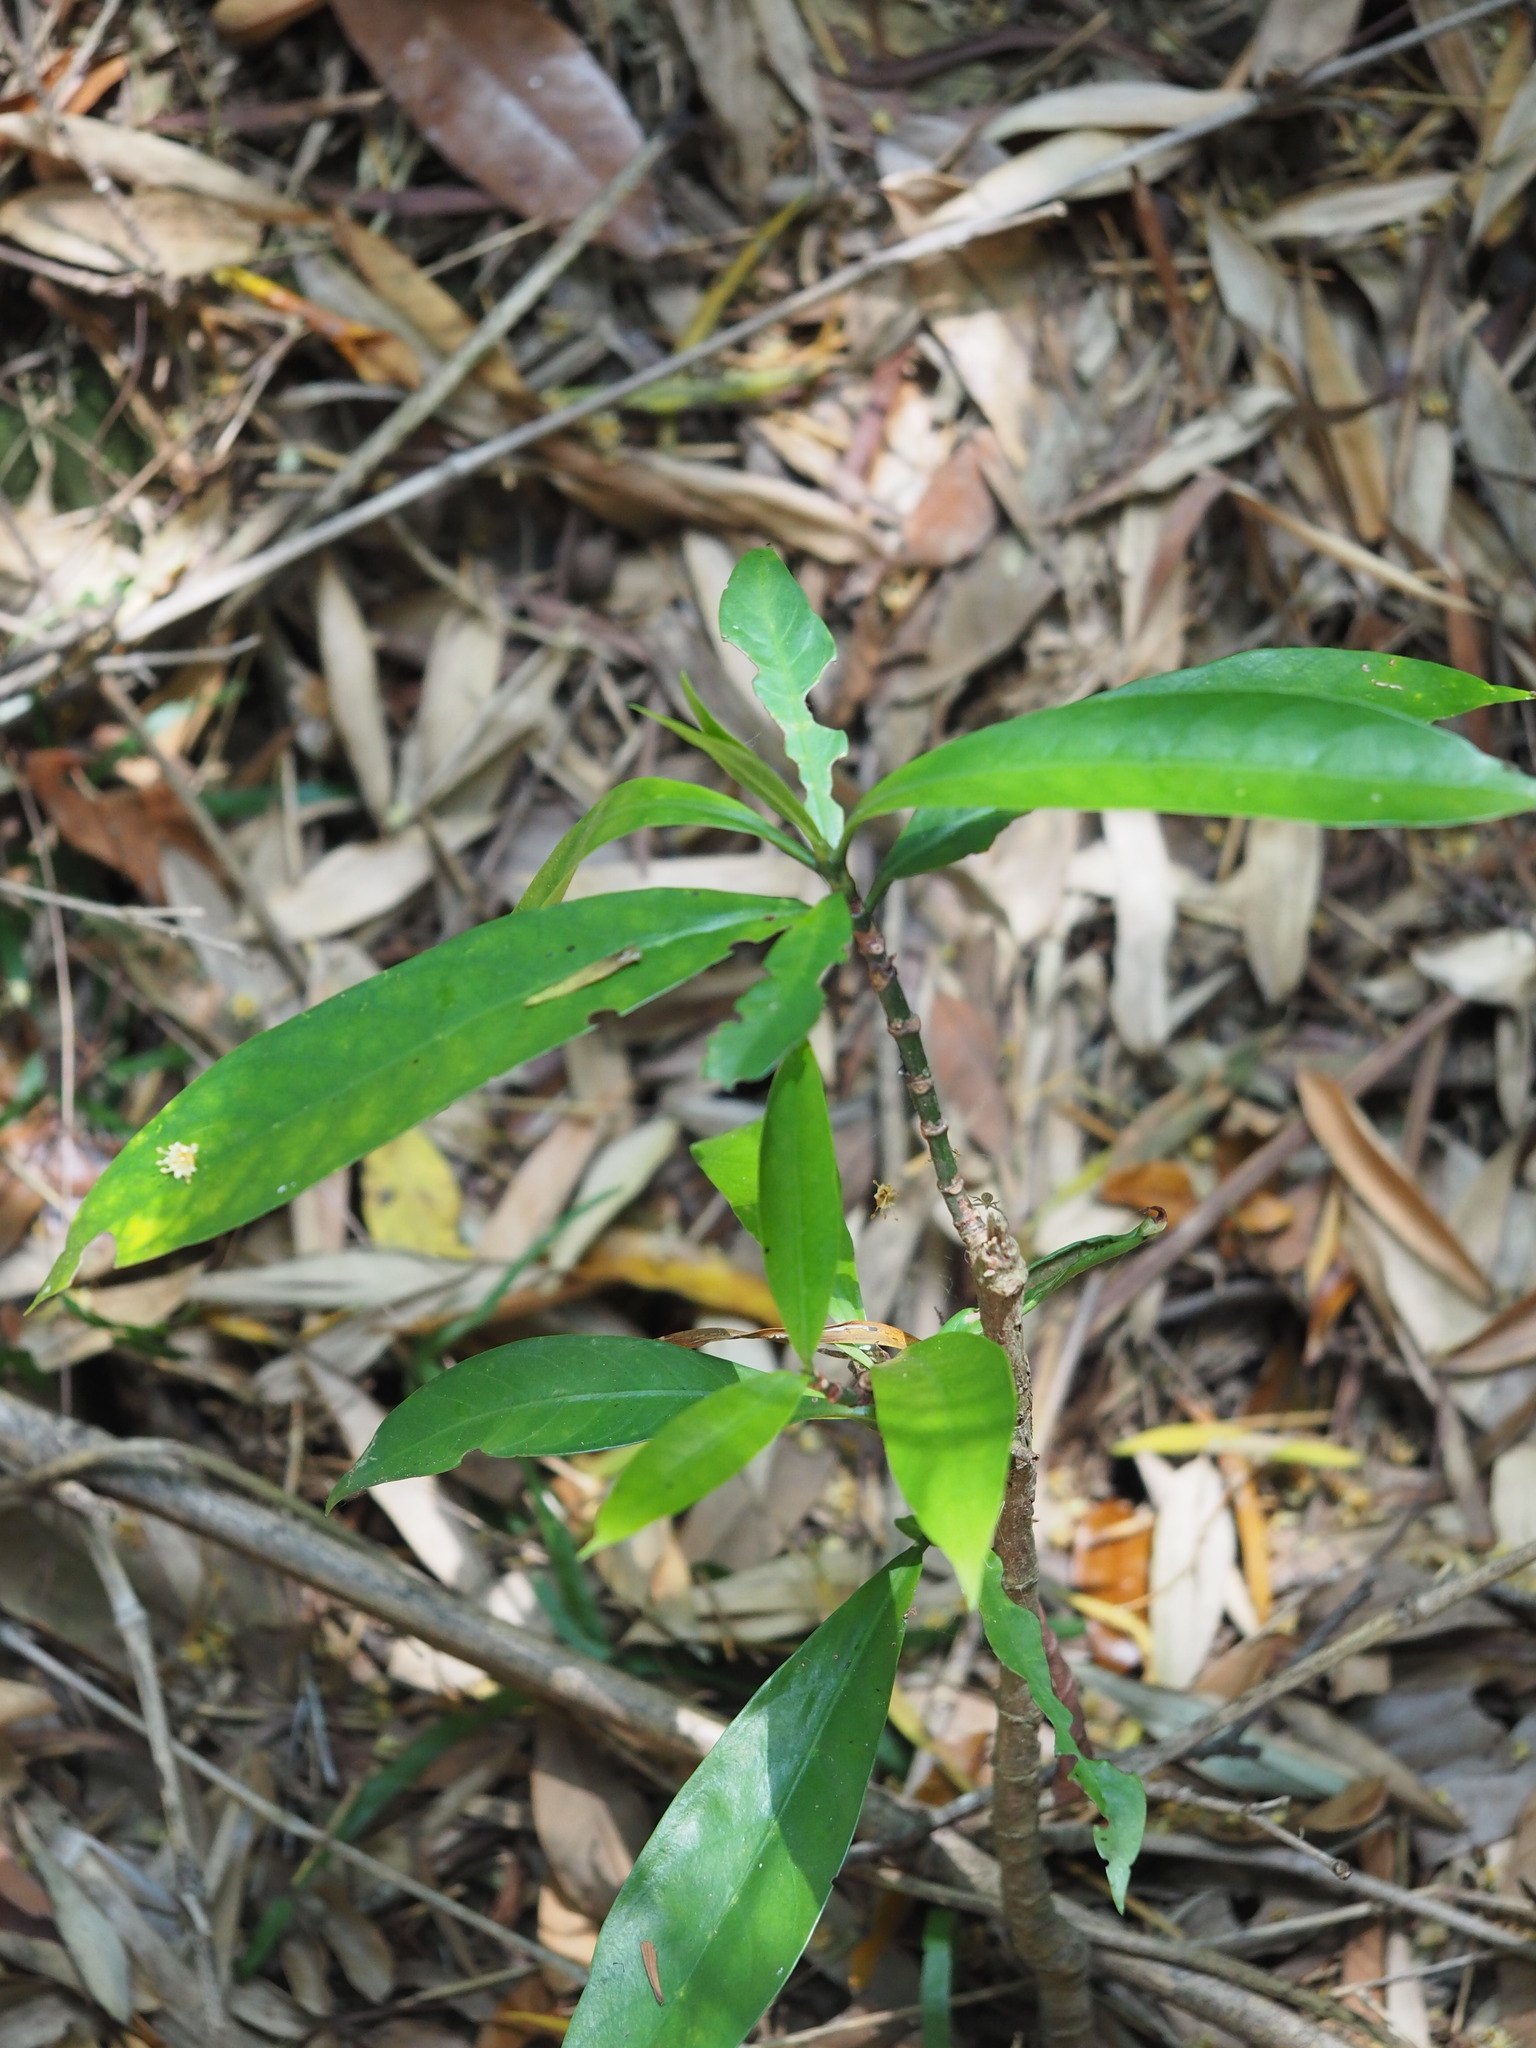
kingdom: Plantae
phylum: Tracheophyta
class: Magnoliopsida
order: Gentianales
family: Rubiaceae
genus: Psychotria
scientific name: Psychotria asiatica
